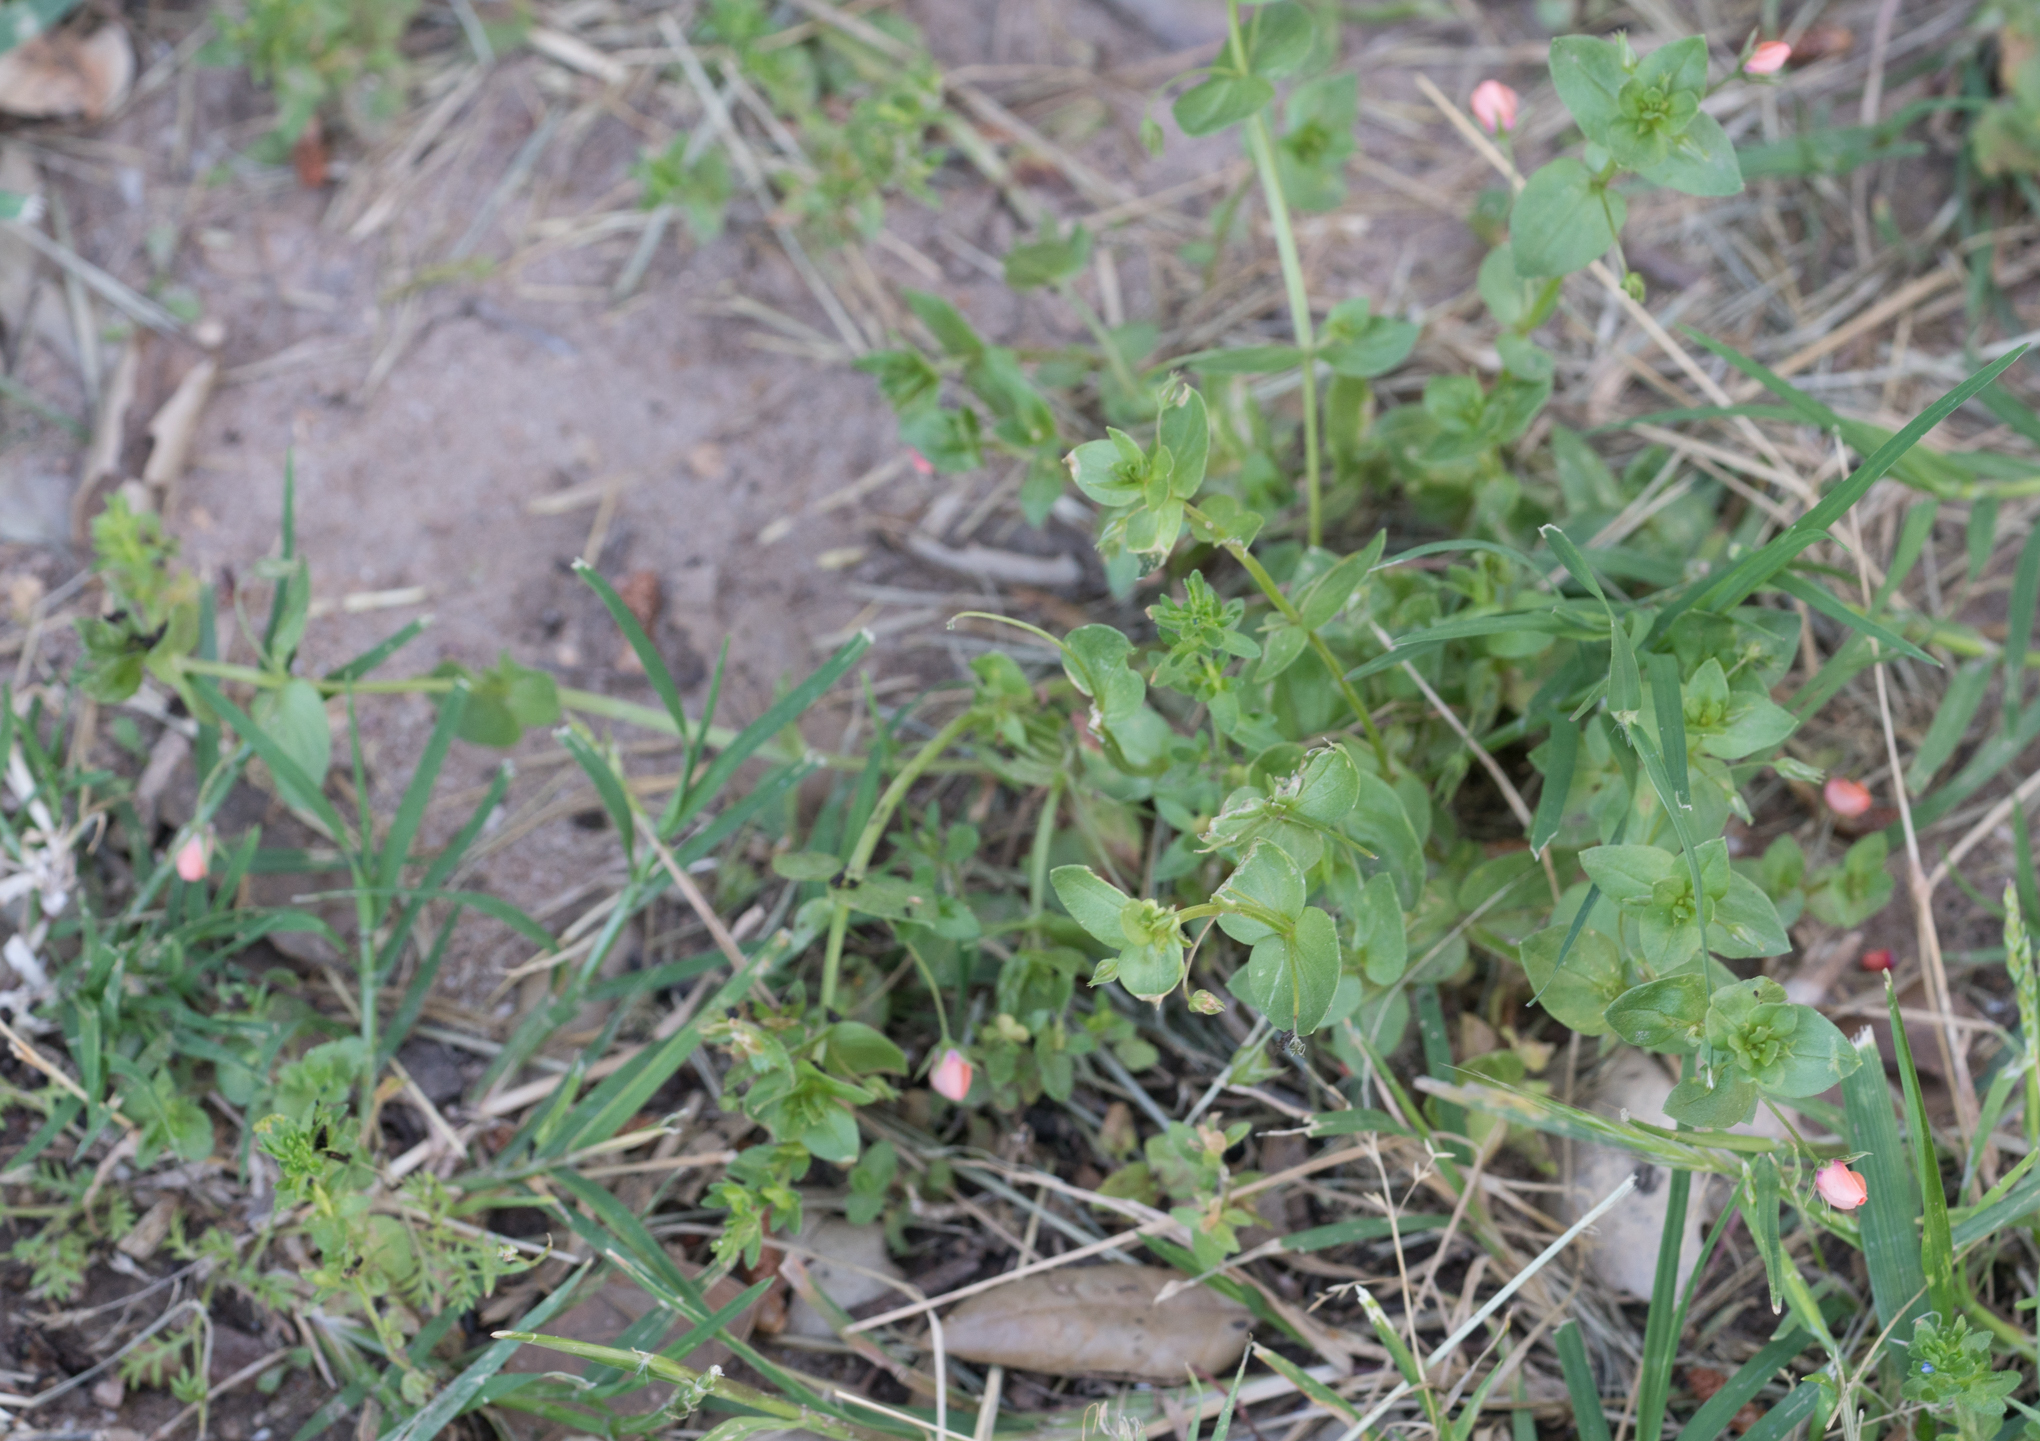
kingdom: Plantae
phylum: Tracheophyta
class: Magnoliopsida
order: Ericales
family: Primulaceae
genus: Lysimachia
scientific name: Lysimachia arvensis
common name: Scarlet pimpernel
